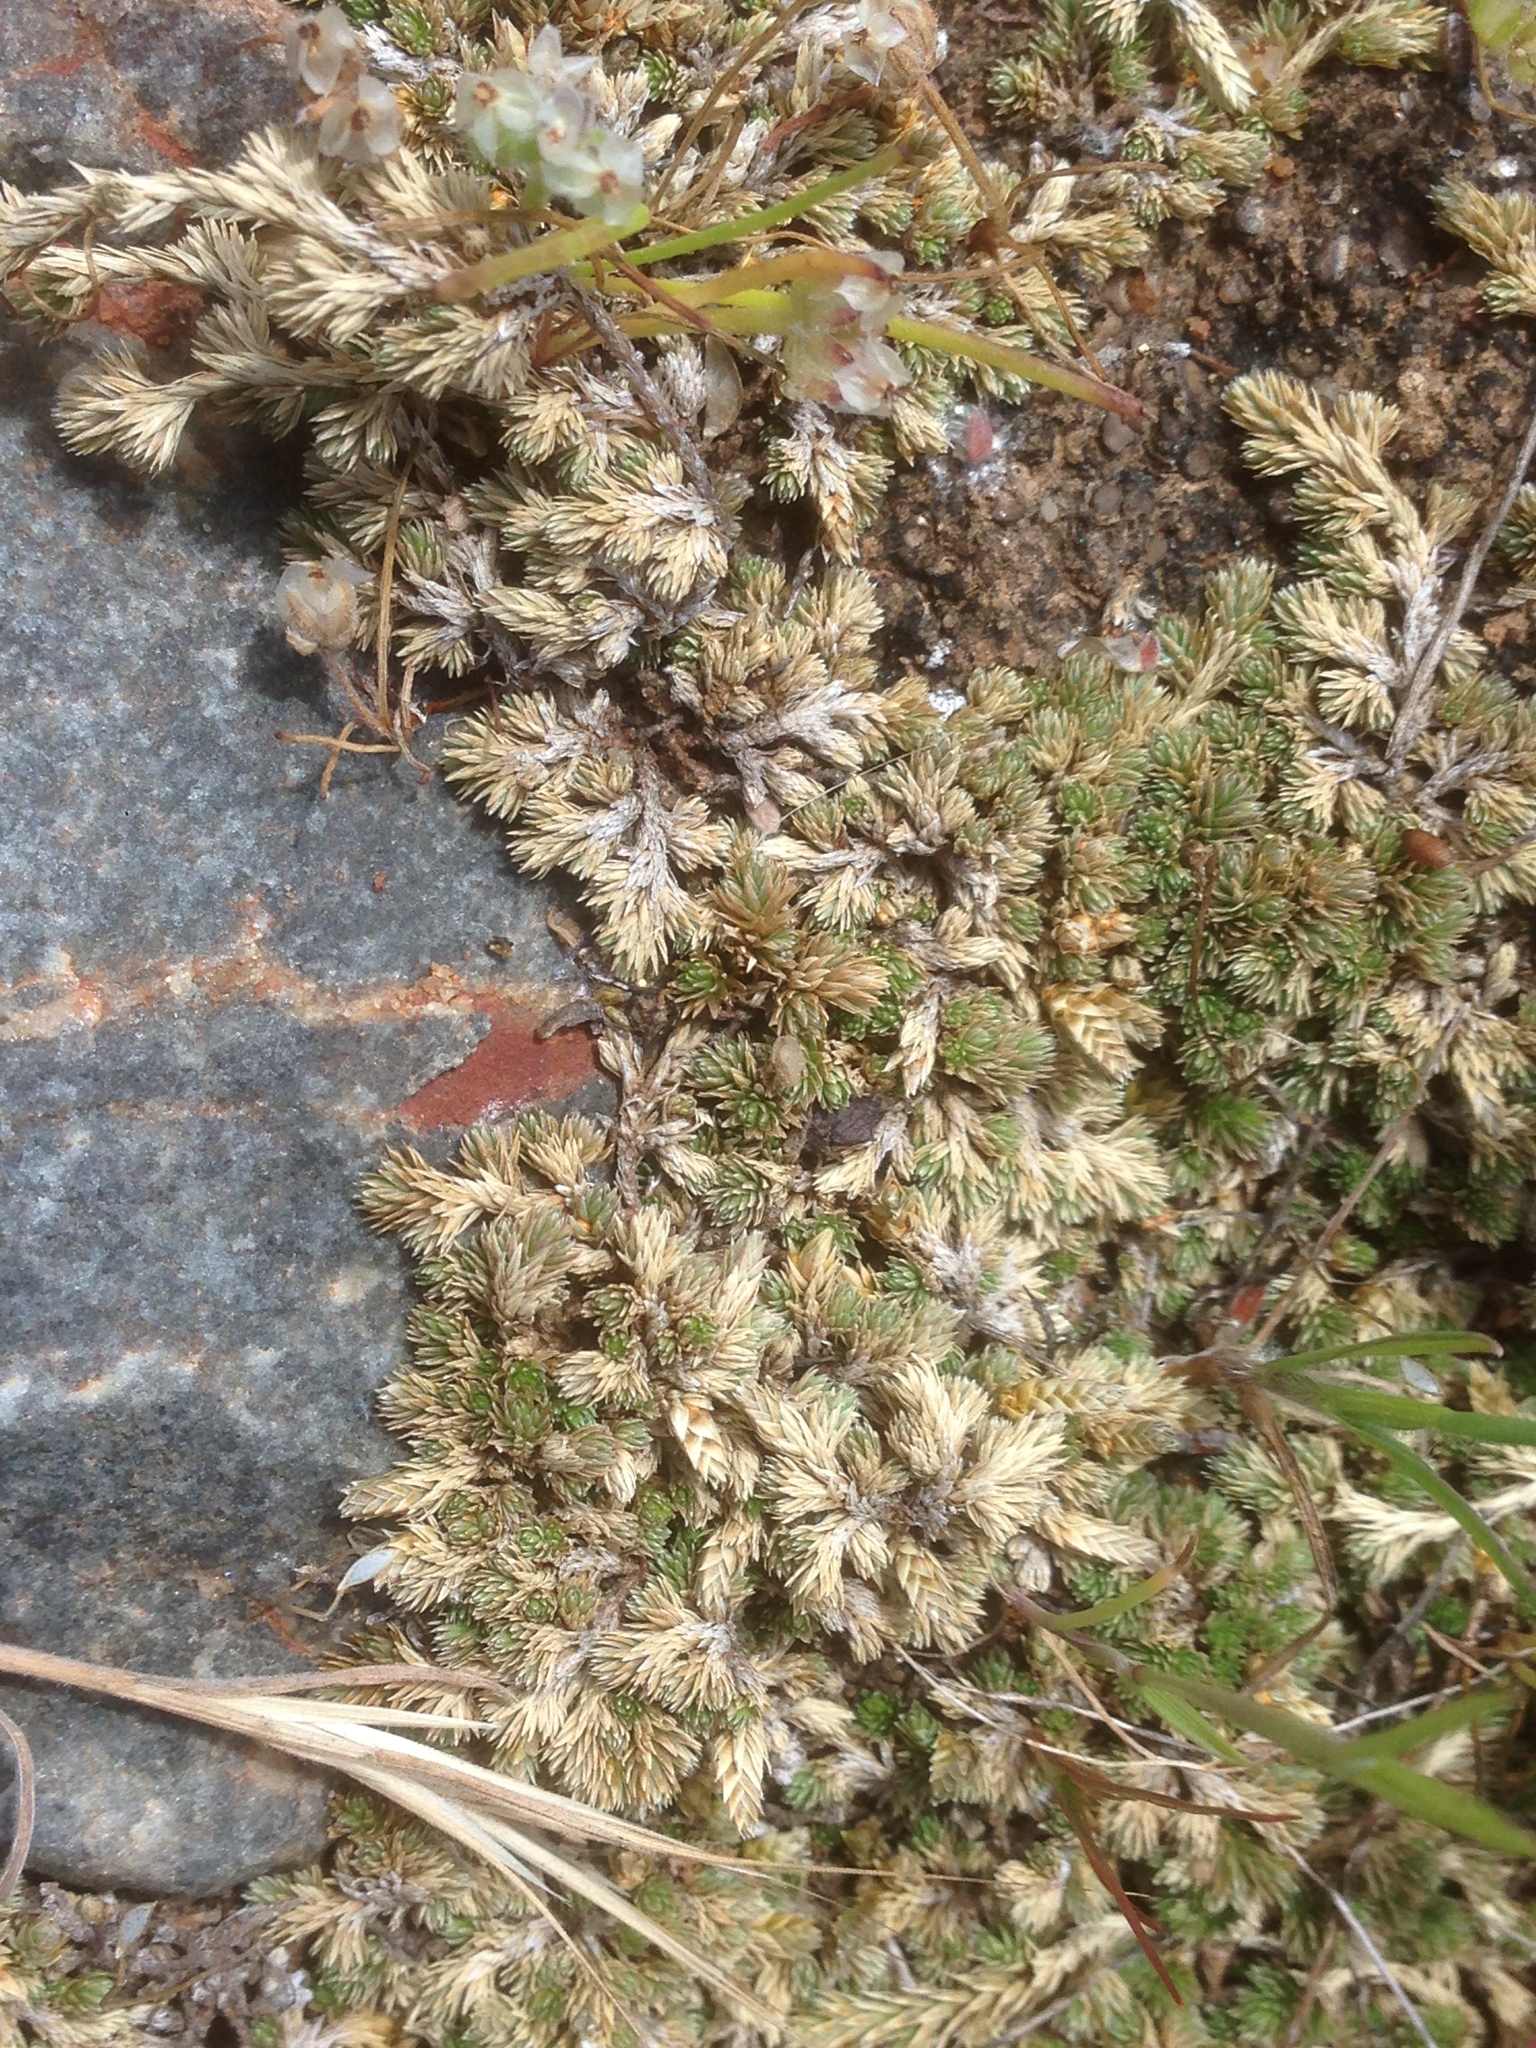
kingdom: Plantae
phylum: Tracheophyta
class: Lycopodiopsida
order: Selaginellales
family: Selaginellaceae
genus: Selaginella
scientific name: Selaginella cinerascens
